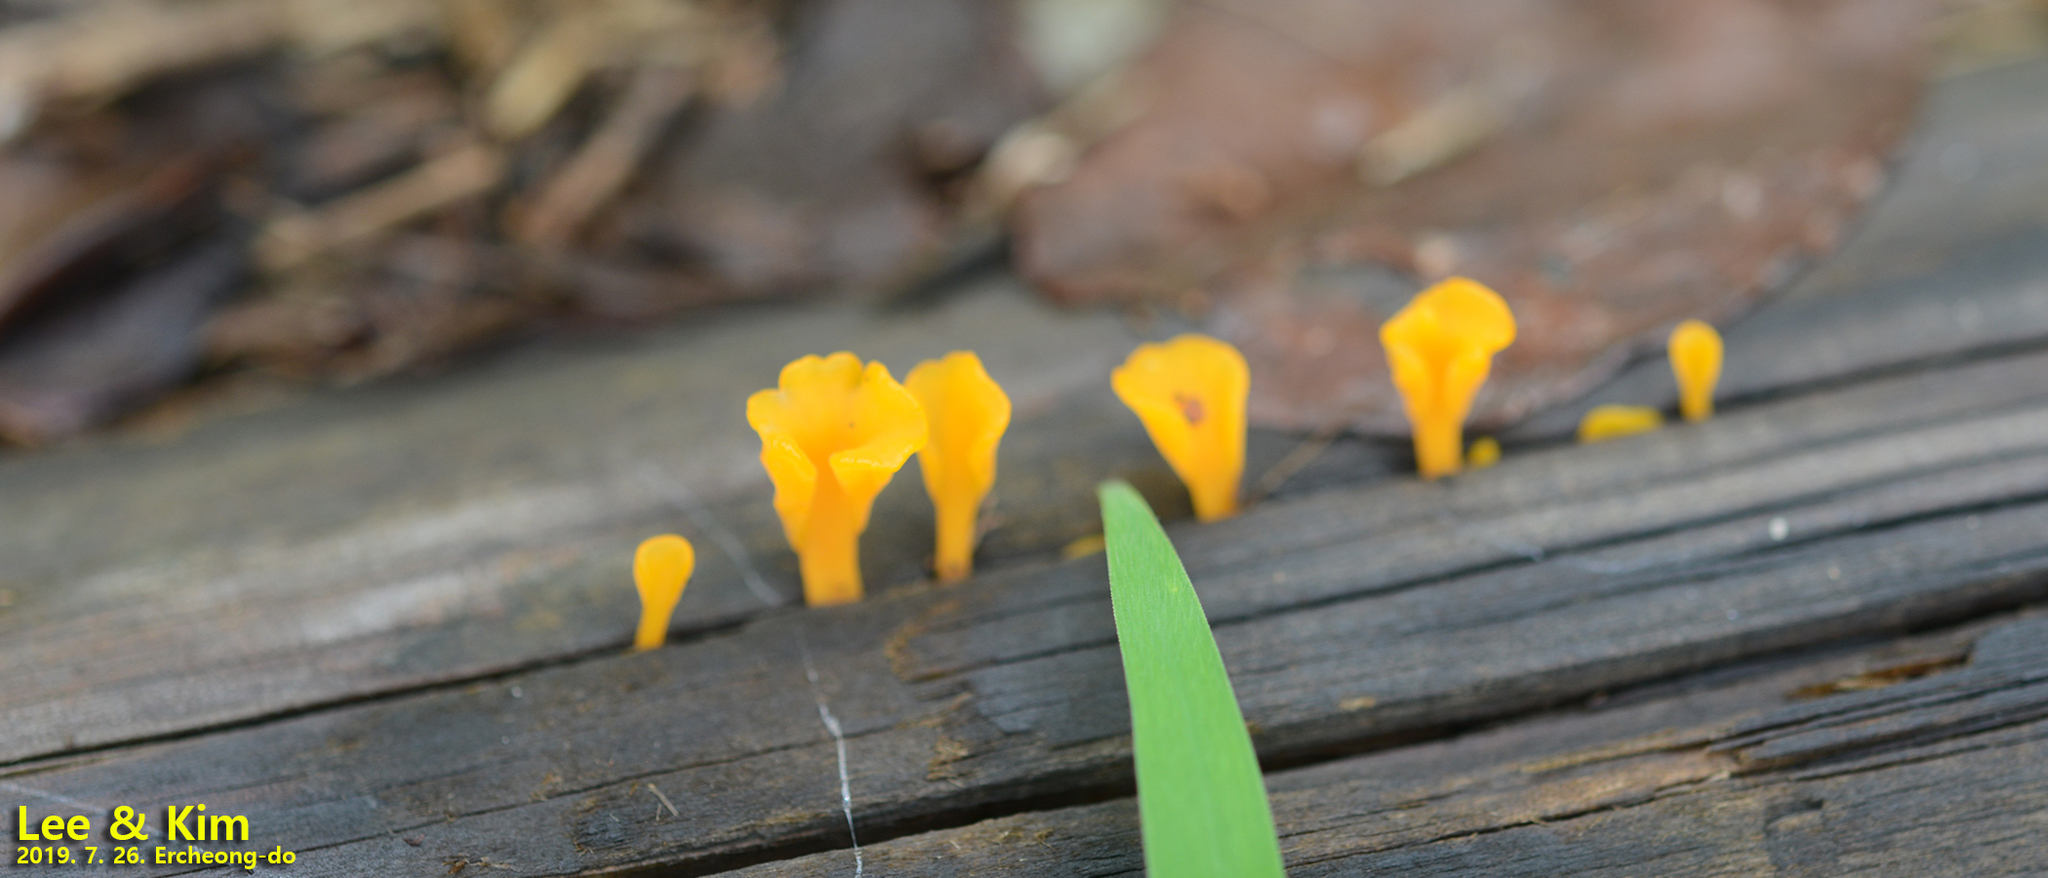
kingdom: Fungi
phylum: Basidiomycota
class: Dacrymycetes
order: Dacrymycetales
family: Dacrymycetaceae
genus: Dacrymyces
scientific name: Dacrymyces spathularius
